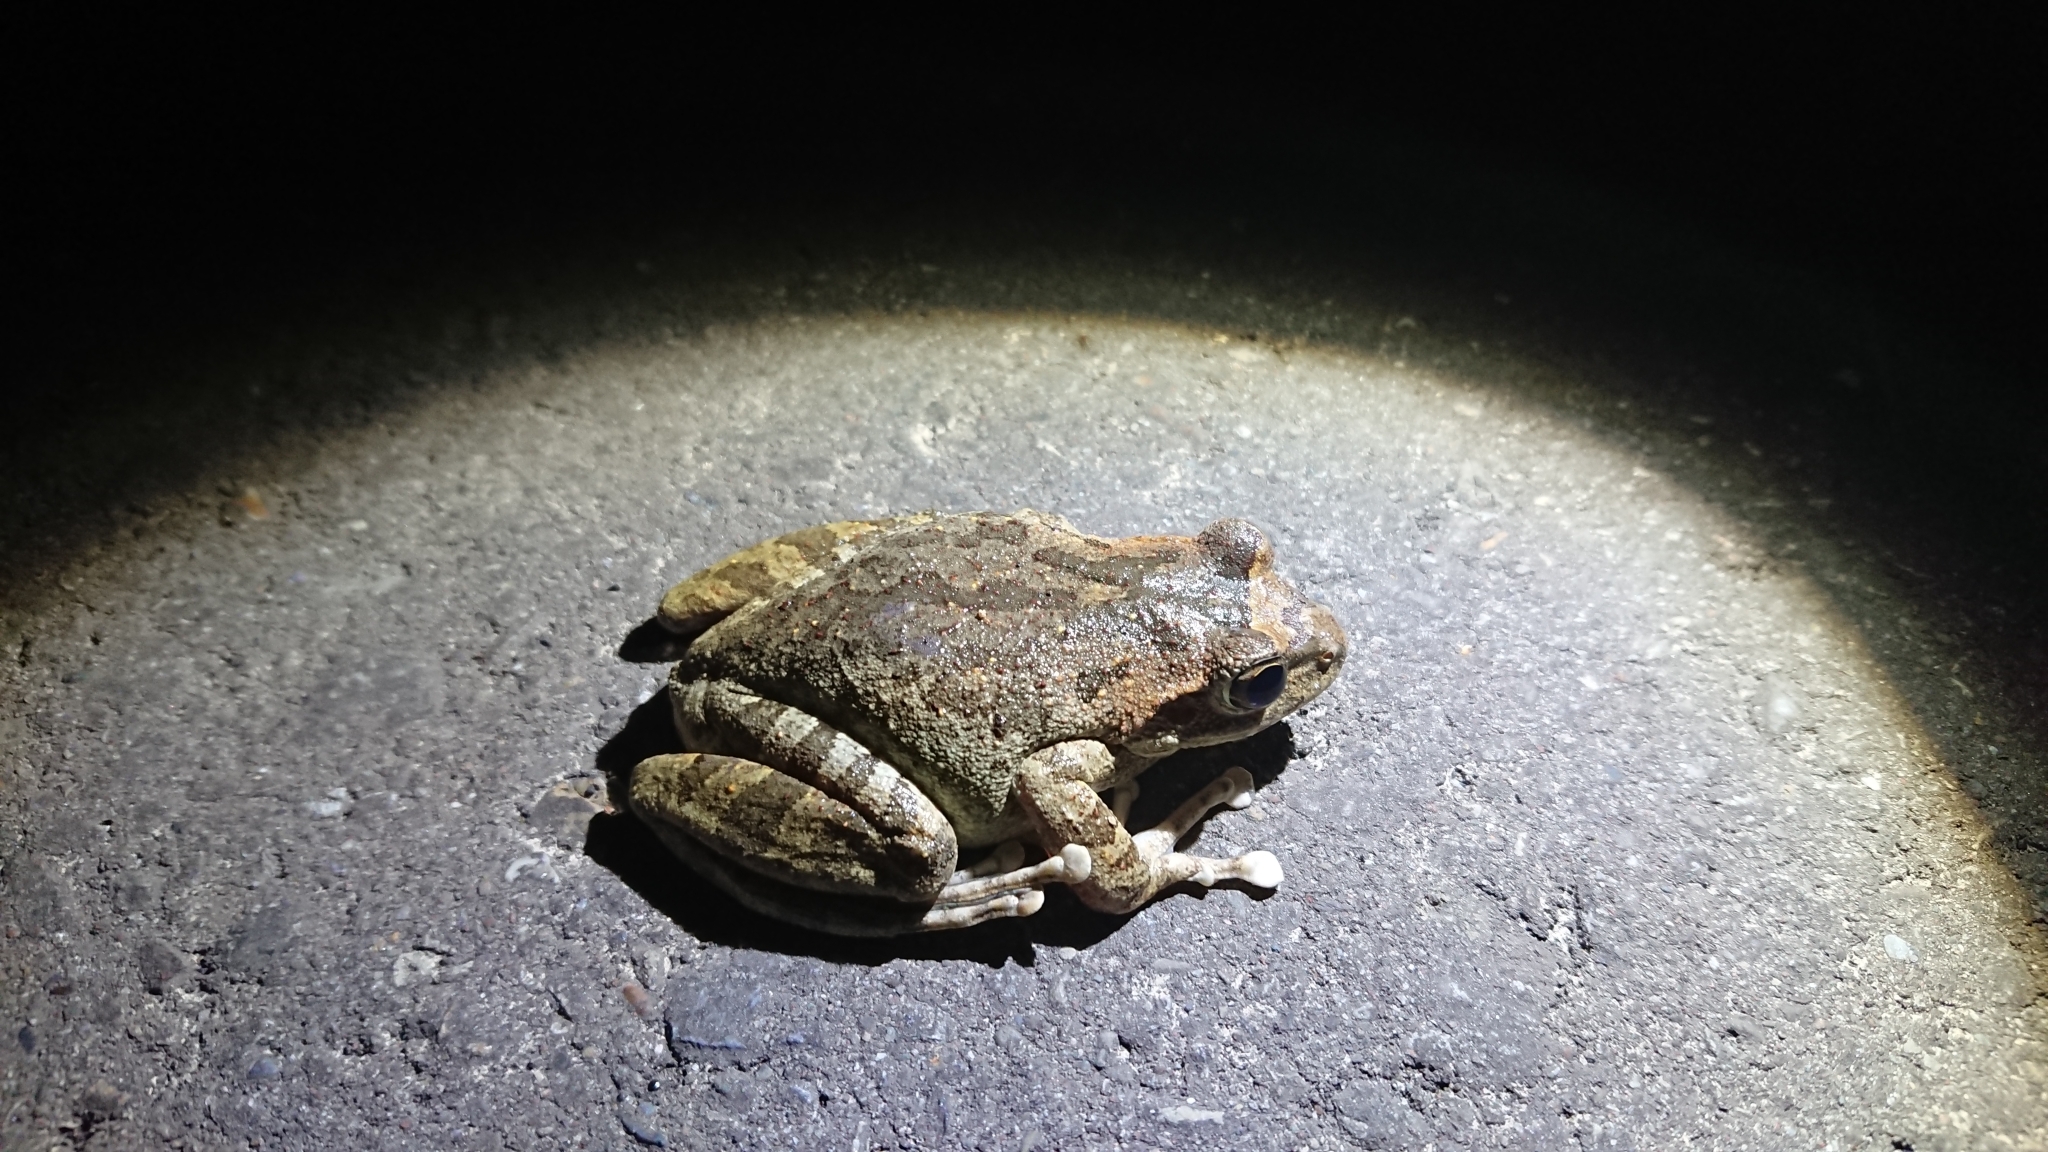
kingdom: Animalia
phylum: Chordata
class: Amphibia
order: Anura
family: Rhacophoridae
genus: Buergeria
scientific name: Buergeria robusta
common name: Brown treefrog
